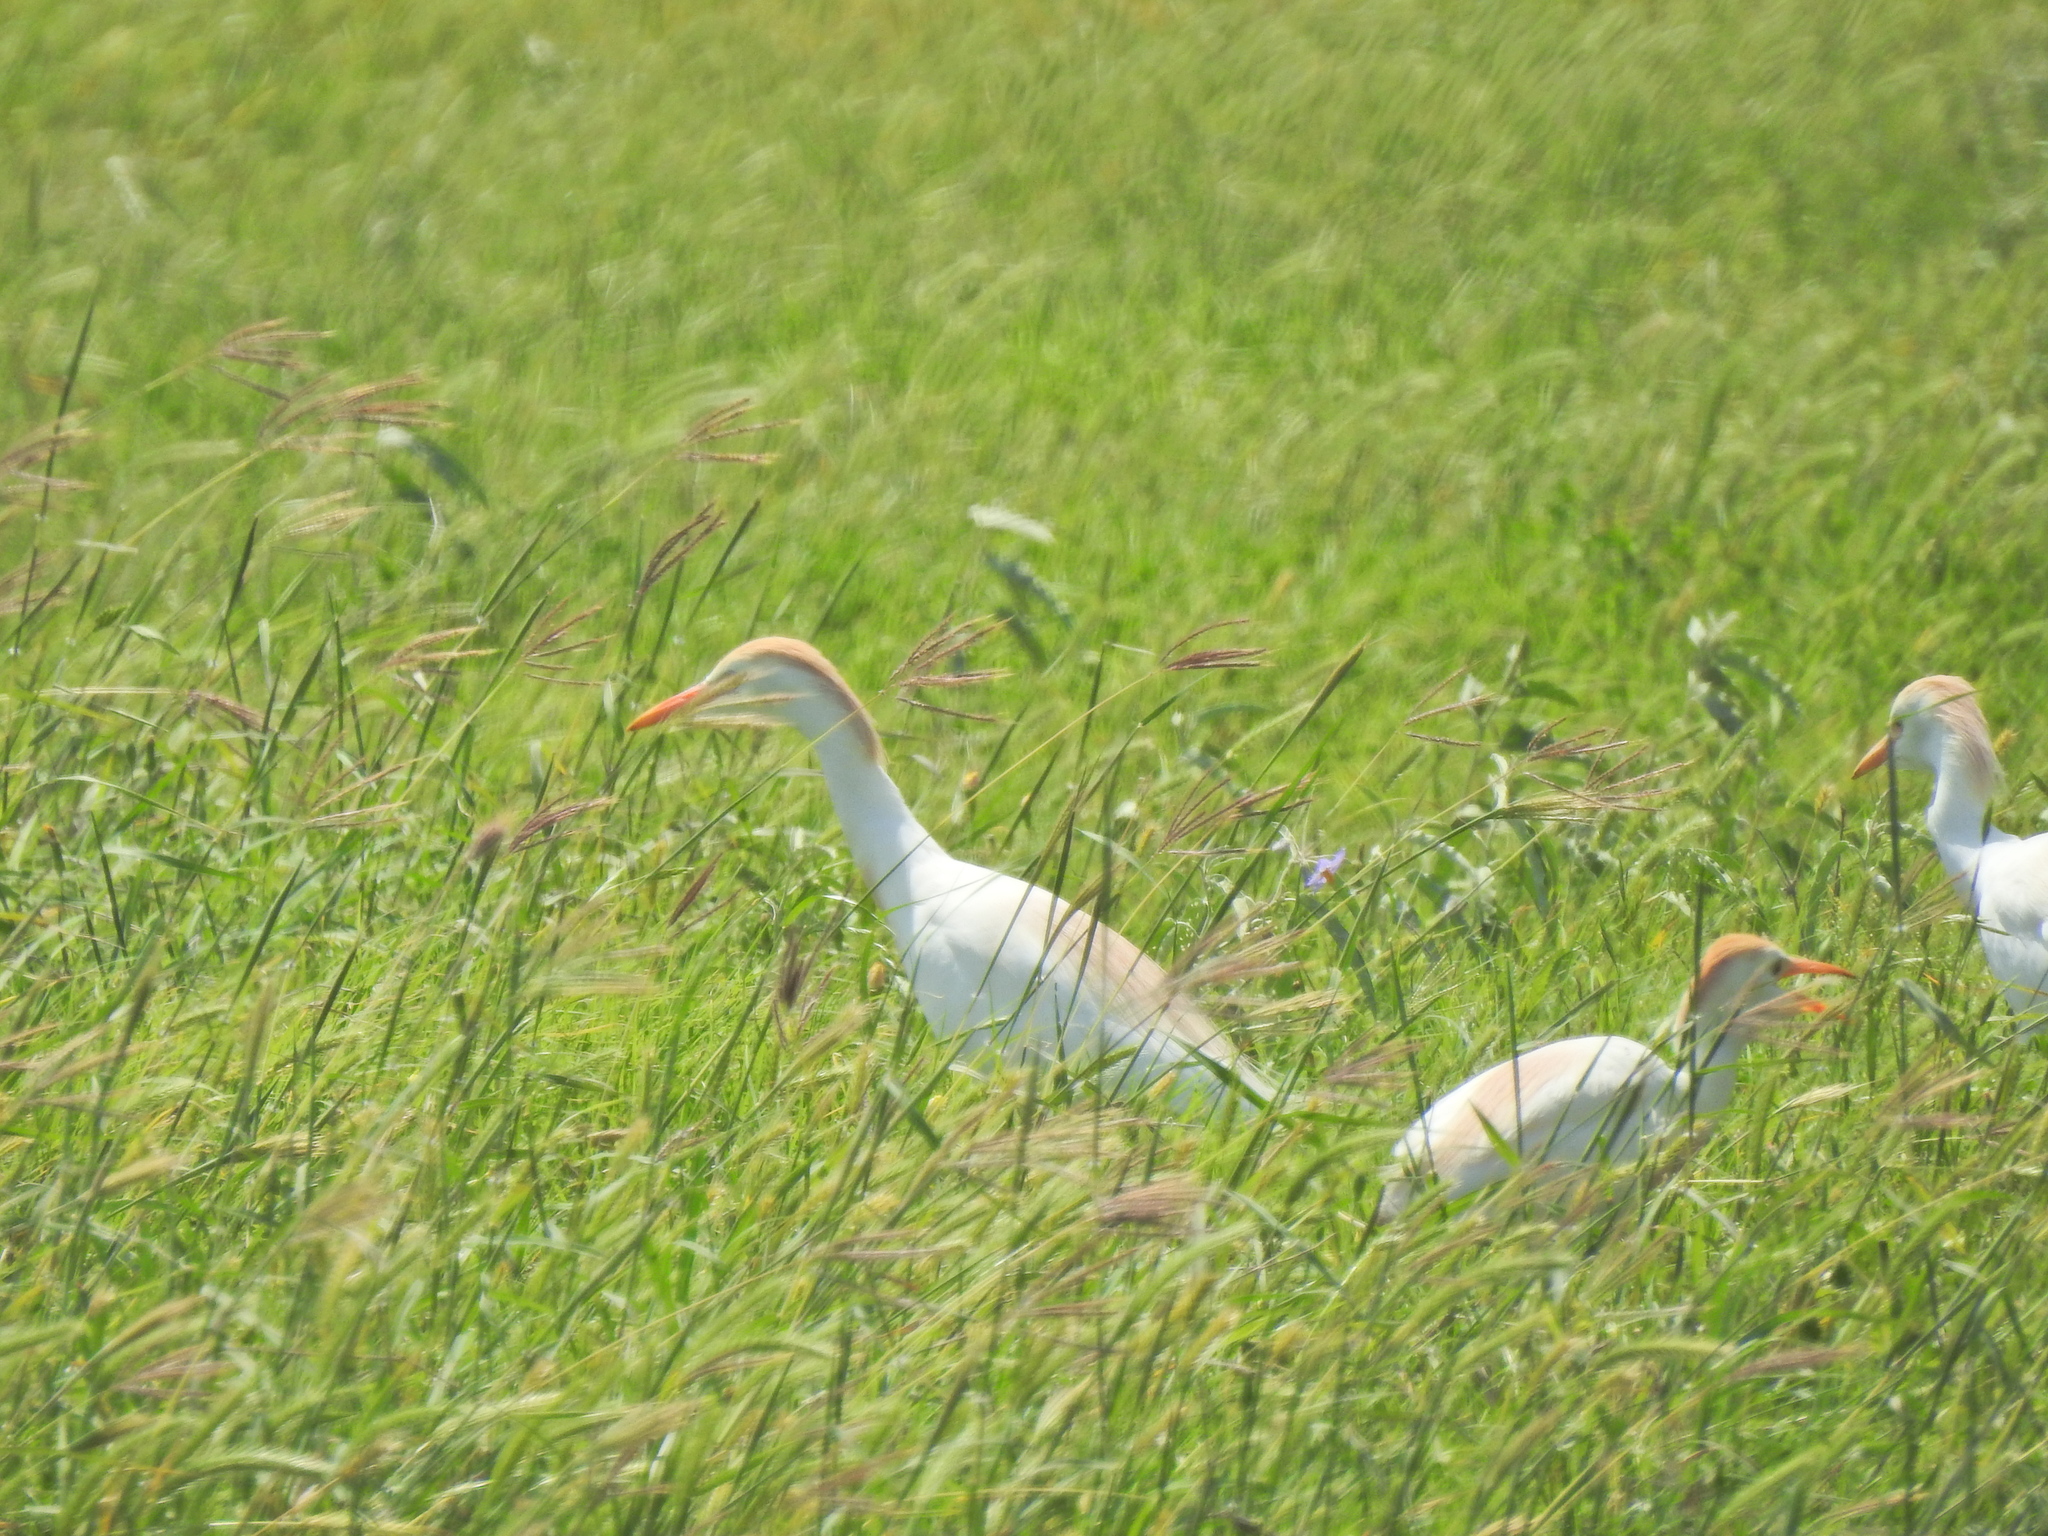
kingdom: Animalia
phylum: Chordata
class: Aves
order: Pelecaniformes
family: Ardeidae
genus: Bubulcus
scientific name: Bubulcus ibis
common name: Cattle egret
